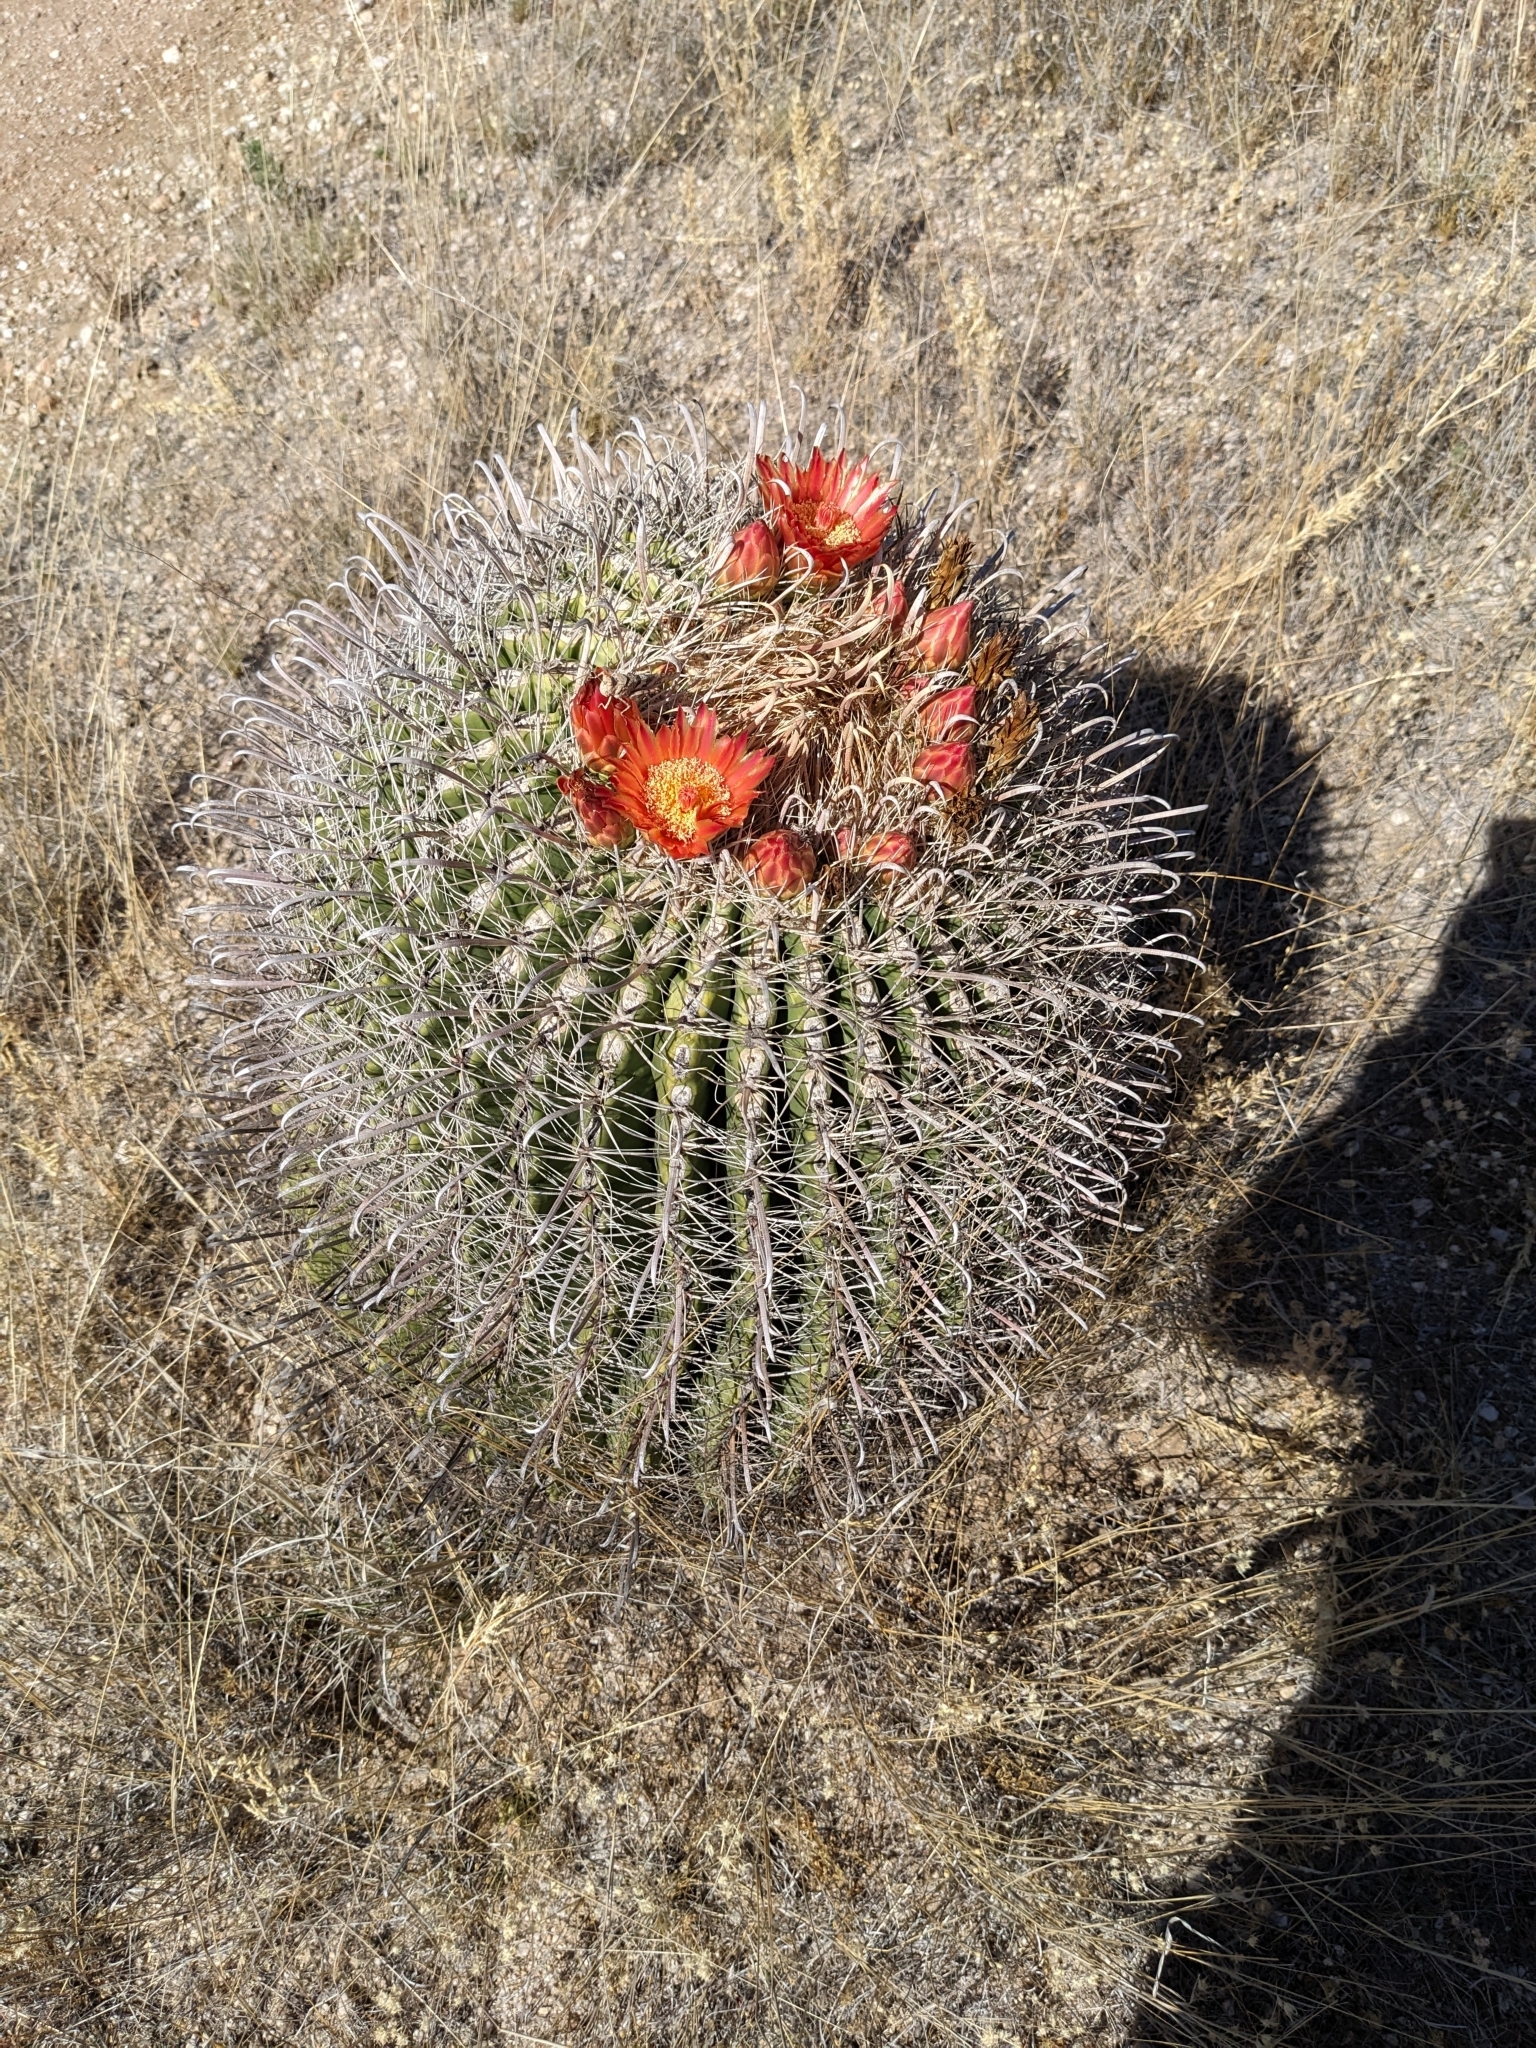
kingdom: Plantae
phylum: Tracheophyta
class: Magnoliopsida
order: Caryophyllales
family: Cactaceae
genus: Ferocactus
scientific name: Ferocactus wislizeni
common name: Candy barrel cactus
